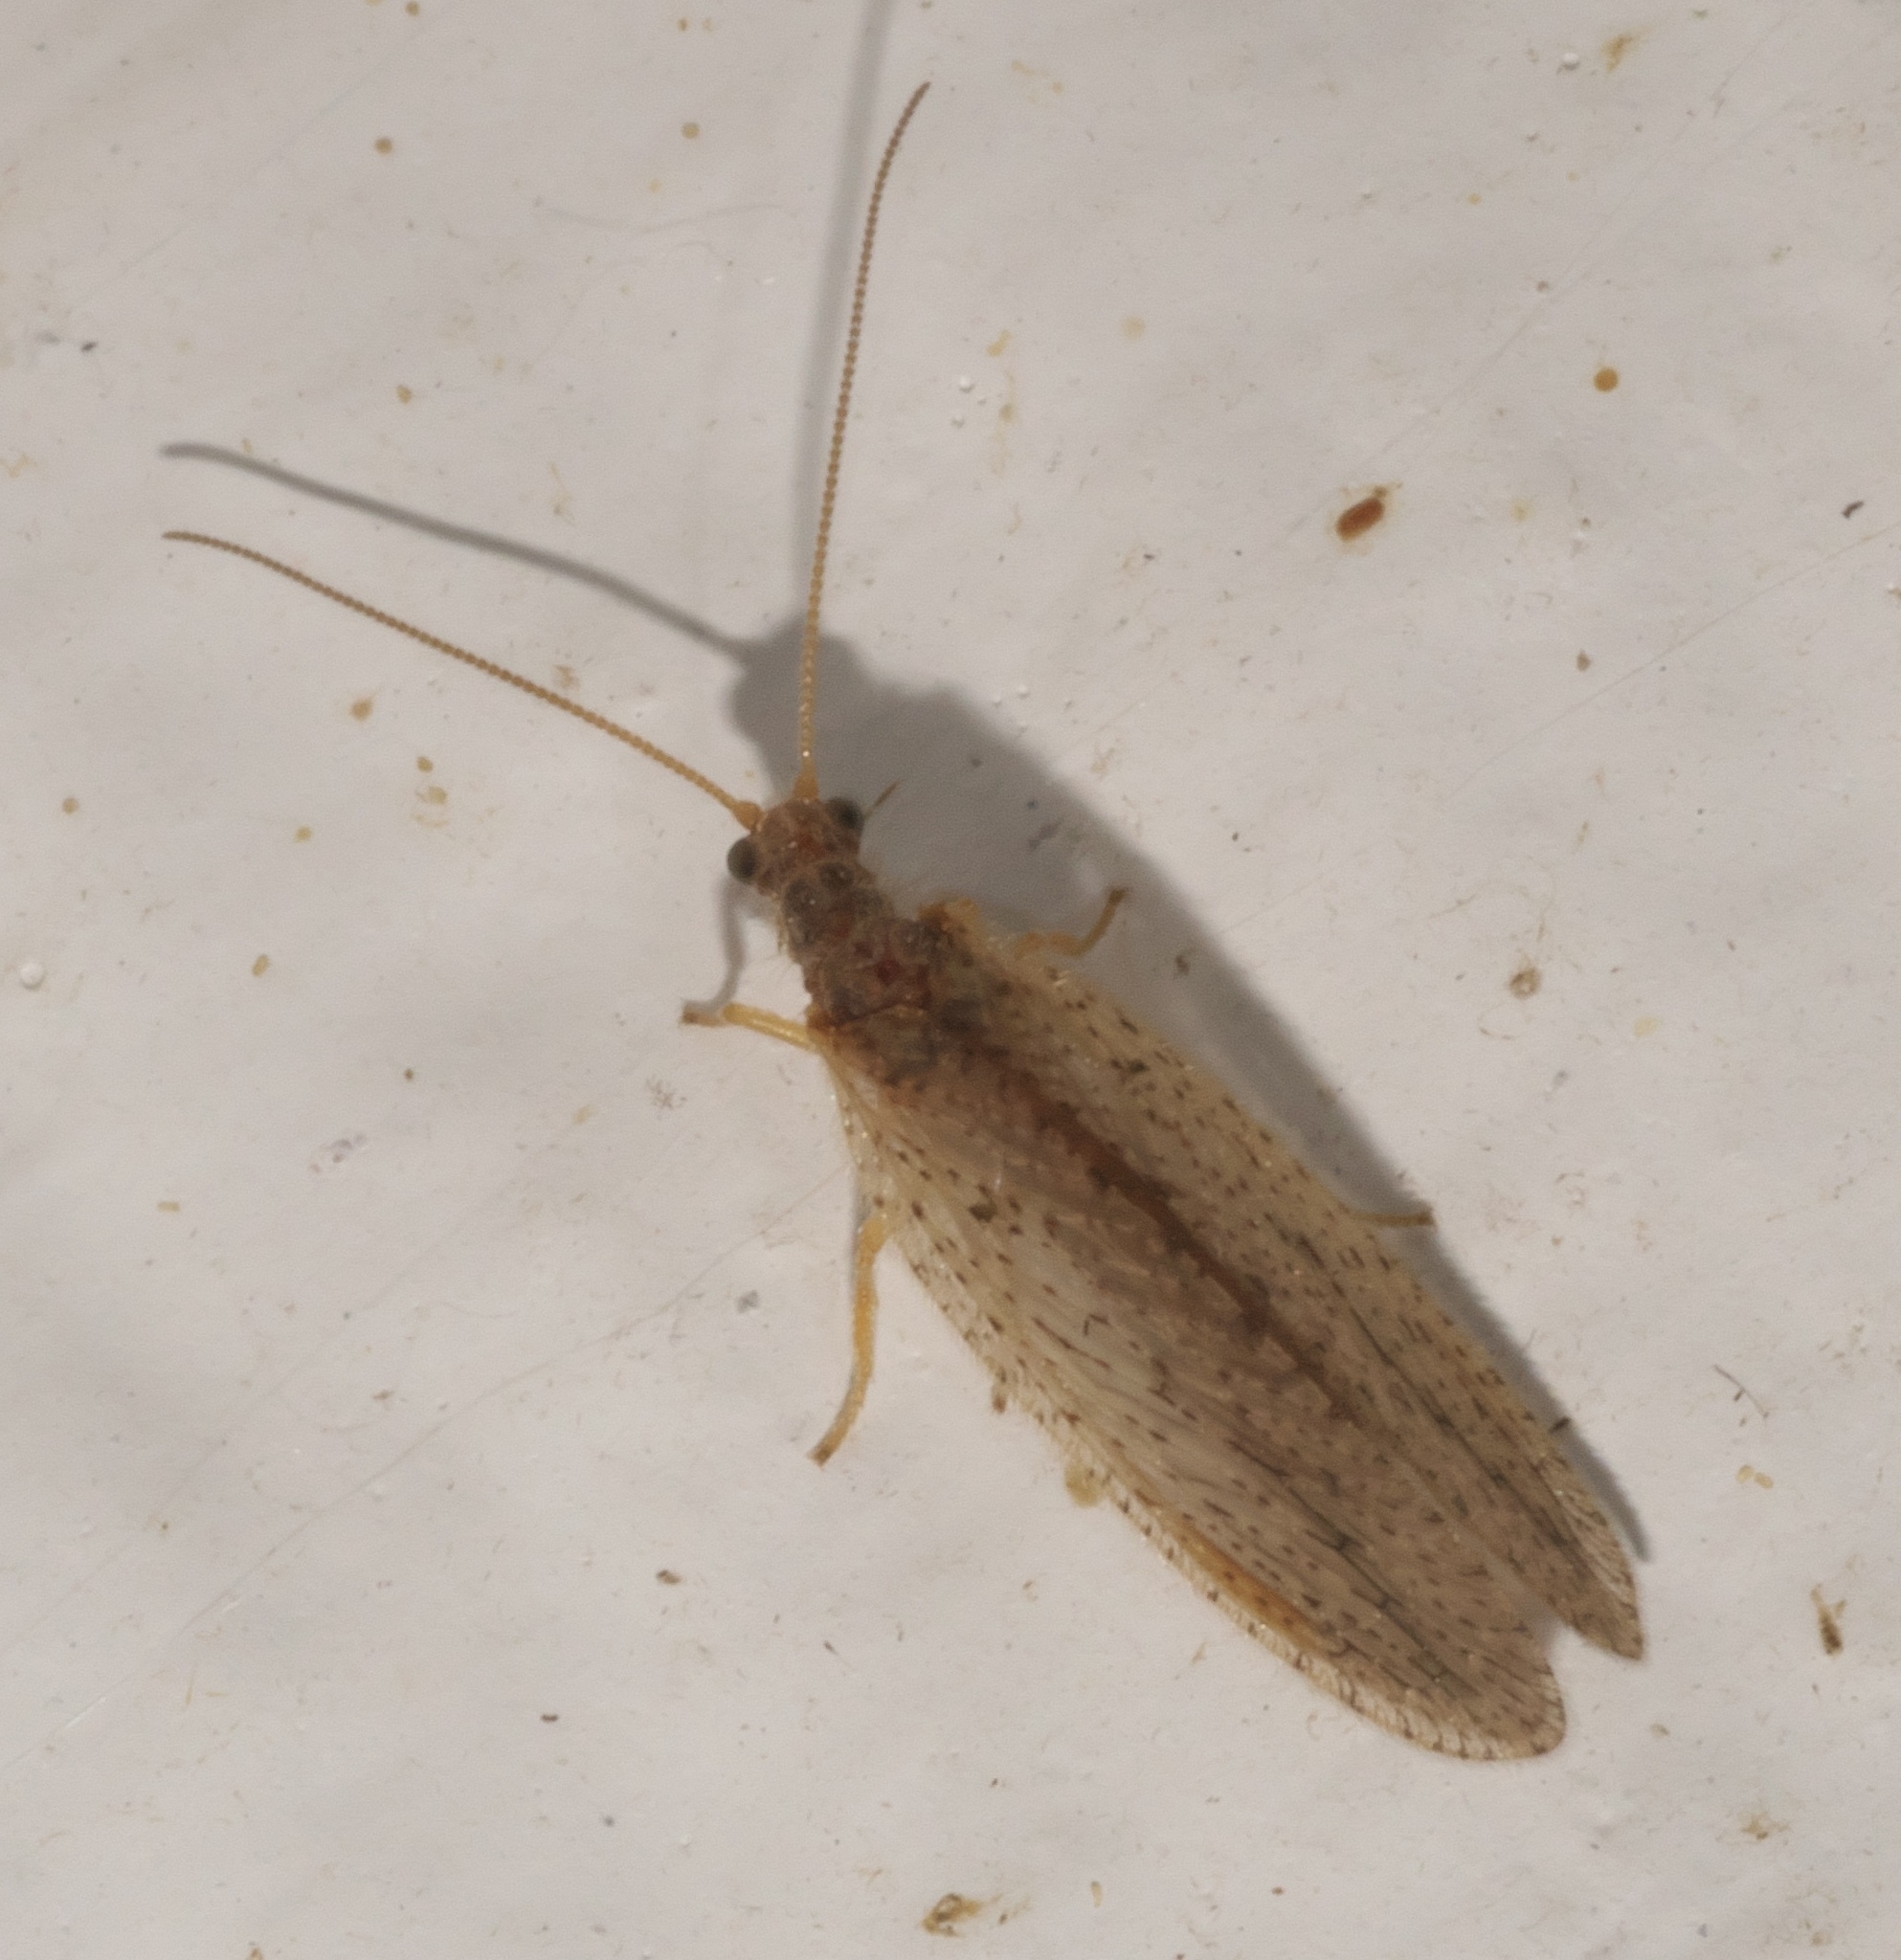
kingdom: Animalia
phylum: Arthropoda
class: Insecta
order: Neuroptera
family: Hemerobiidae
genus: Micromus
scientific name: Micromus subanticus
